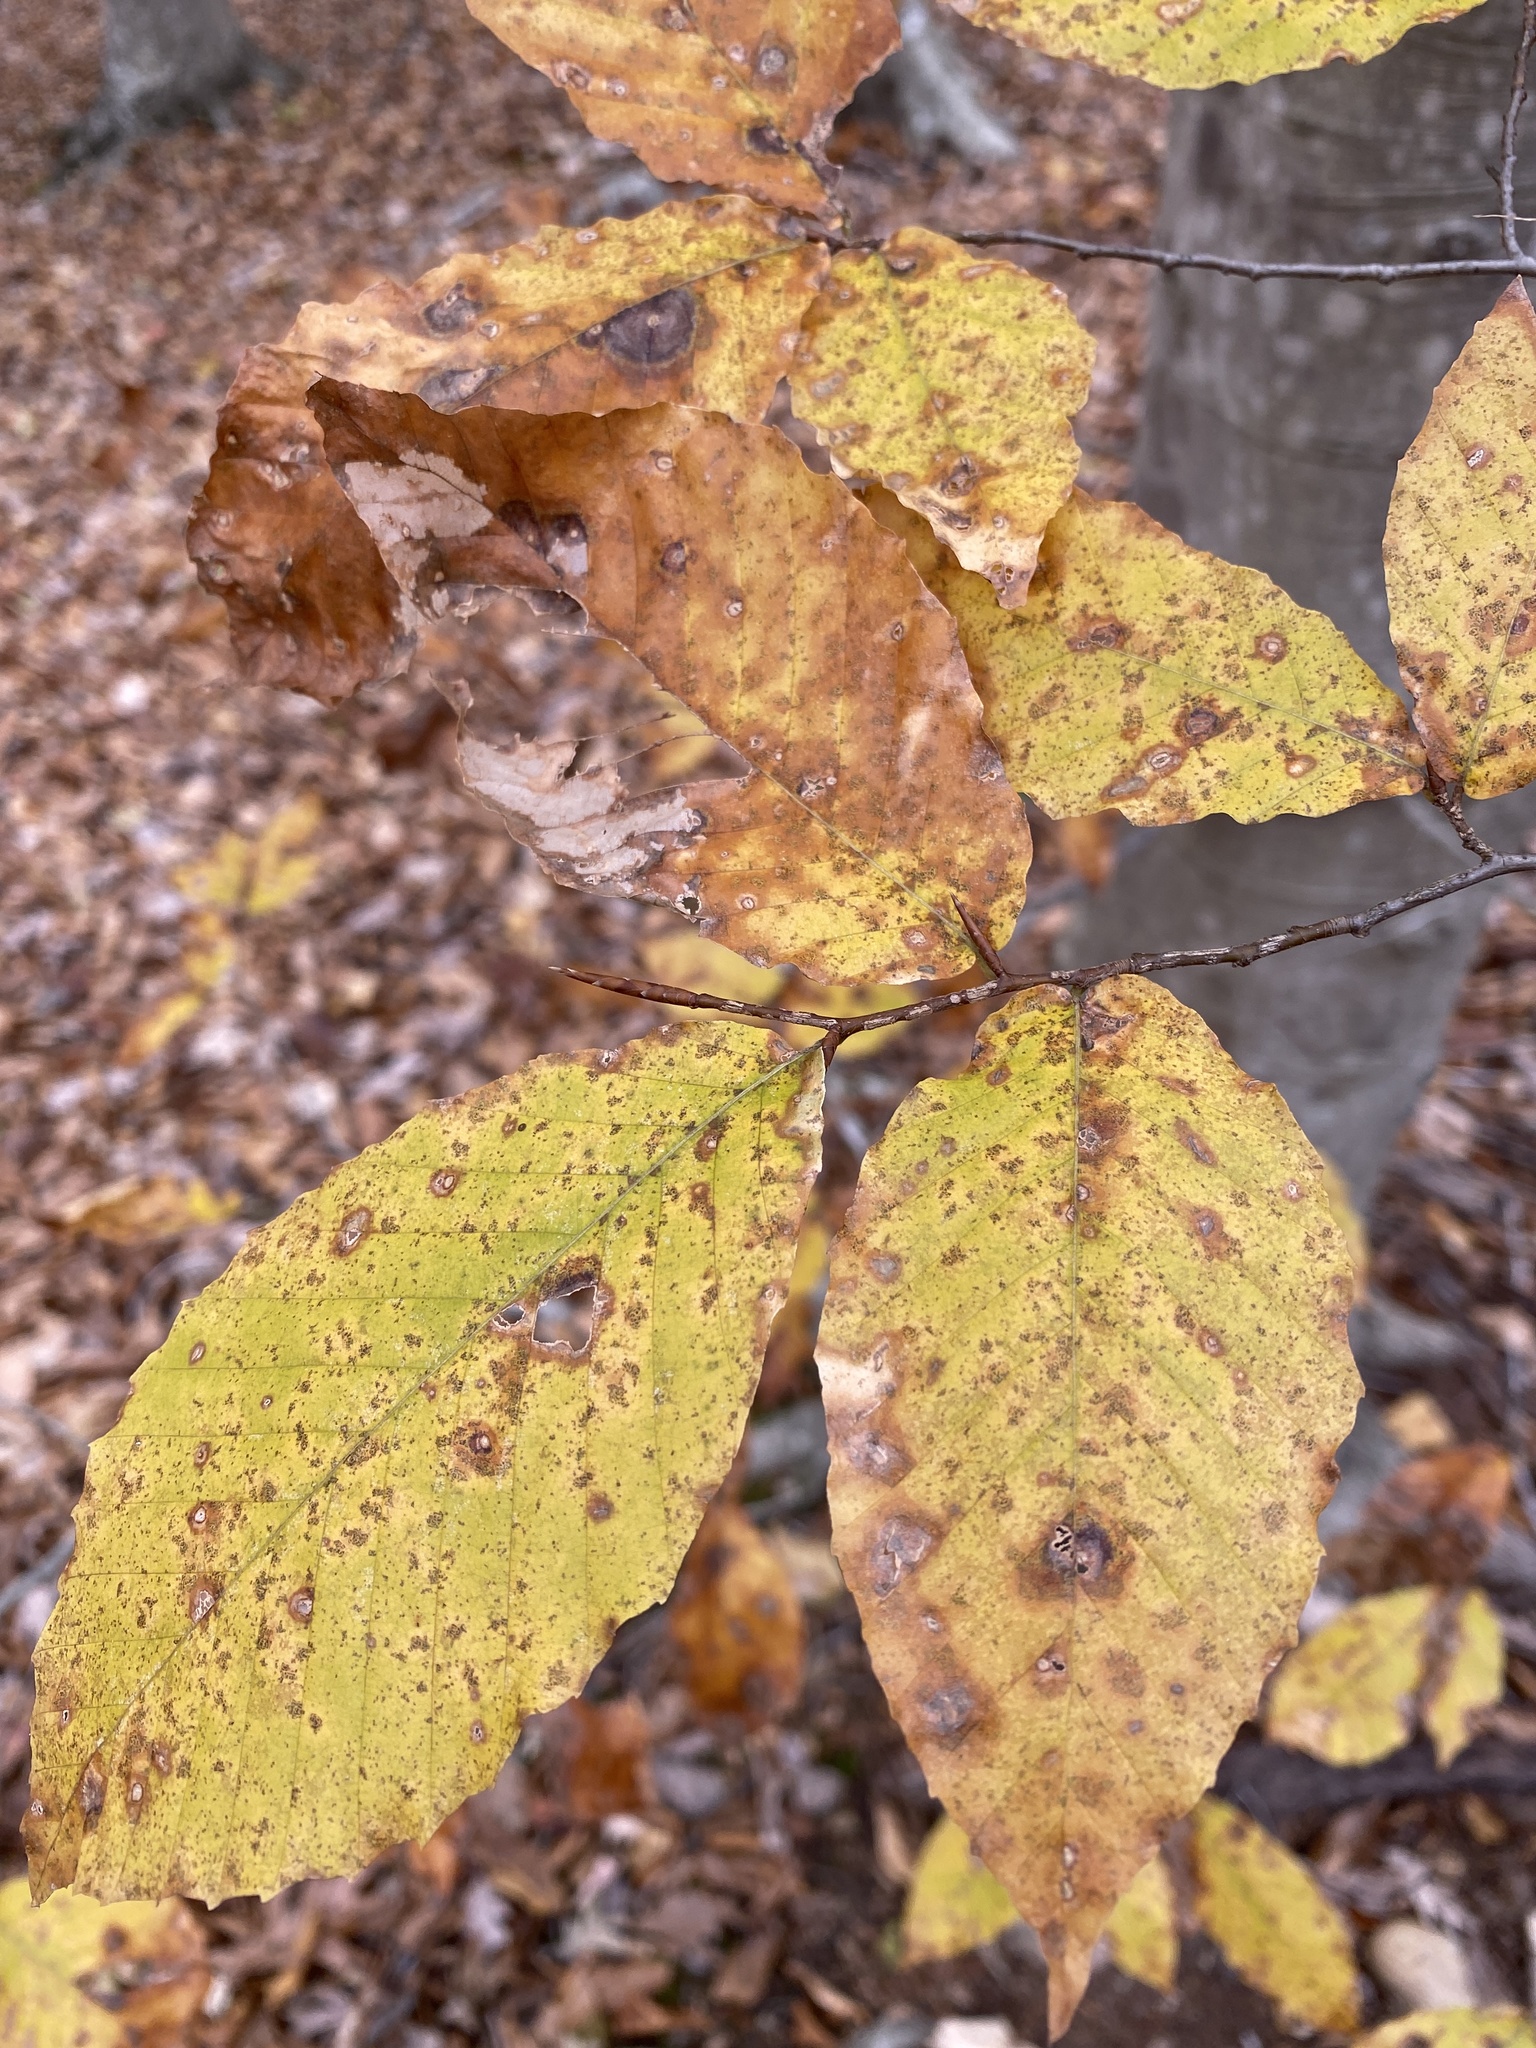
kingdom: Plantae
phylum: Tracheophyta
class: Magnoliopsida
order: Fagales
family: Fagaceae
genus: Fagus
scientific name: Fagus grandifolia
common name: American beech
